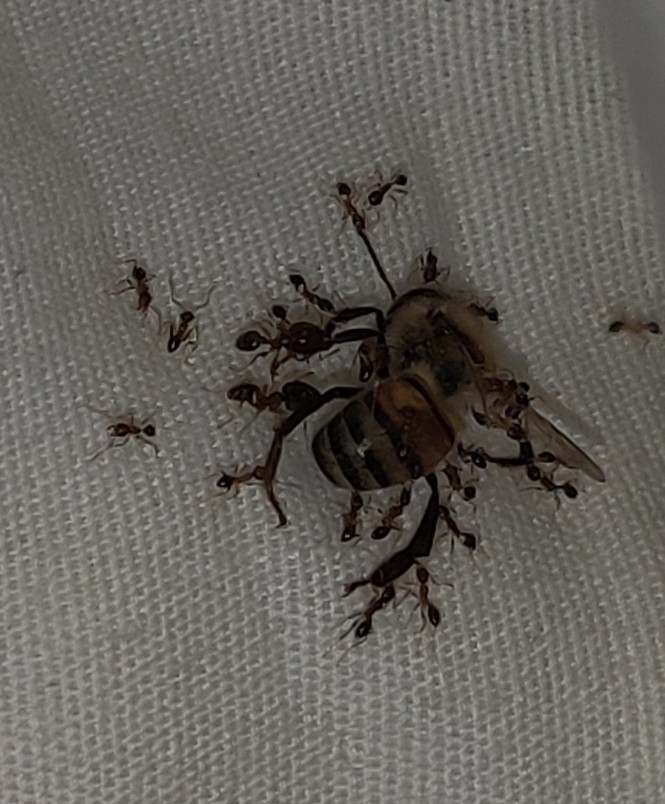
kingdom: Animalia
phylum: Arthropoda
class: Insecta
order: Hymenoptera
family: Formicidae
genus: Pheidole
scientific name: Pheidole megacephala
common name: Bigheaded ant
